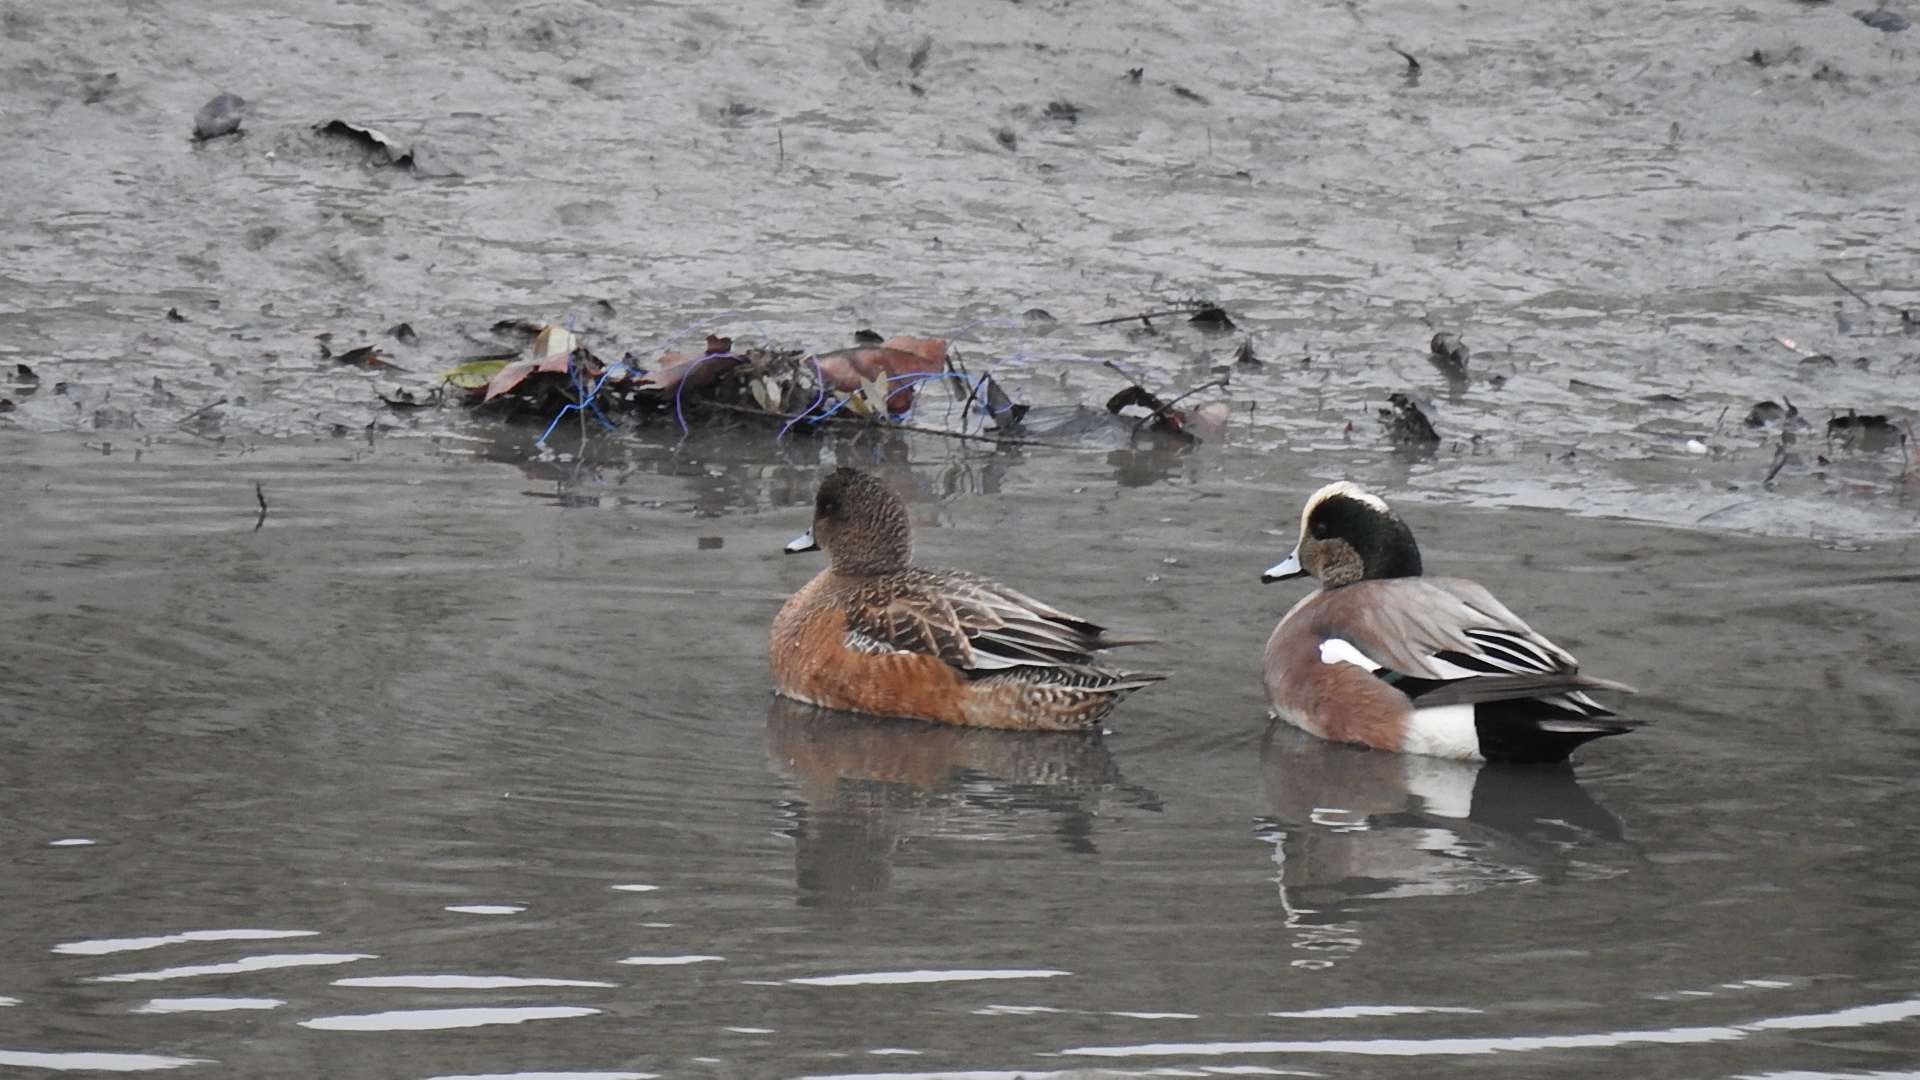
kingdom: Animalia
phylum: Chordata
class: Aves
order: Anseriformes
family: Anatidae
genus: Mareca
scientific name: Mareca americana
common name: American wigeon
